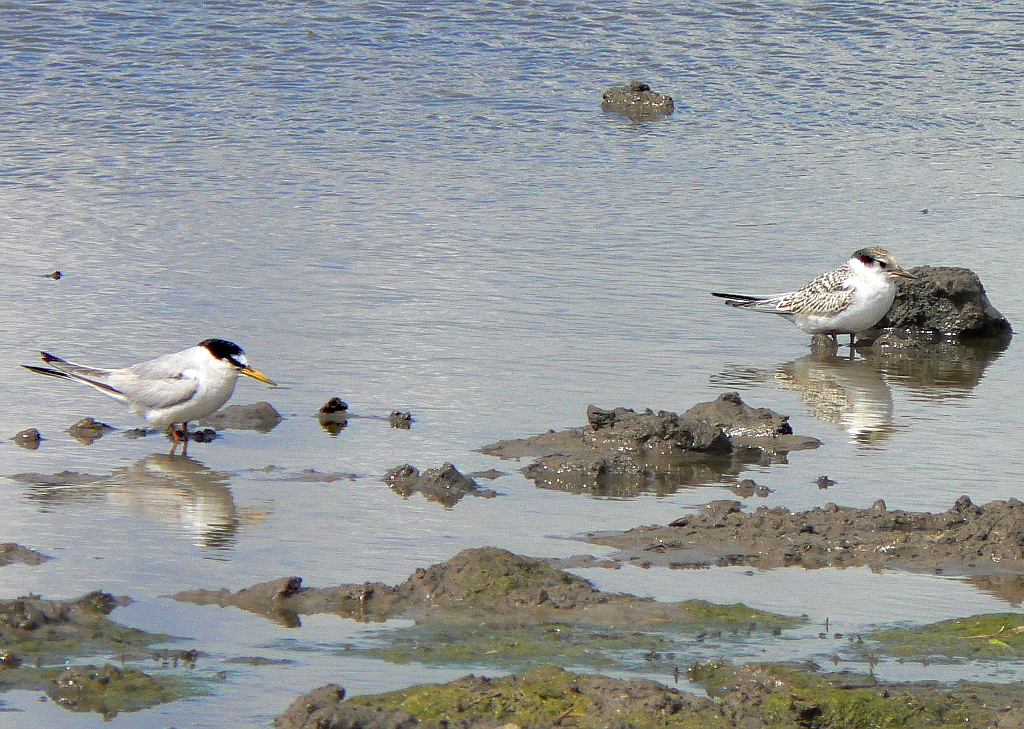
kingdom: Animalia
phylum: Chordata
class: Aves
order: Charadriiformes
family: Laridae
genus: Sternula
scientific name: Sternula albifrons
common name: Little tern
